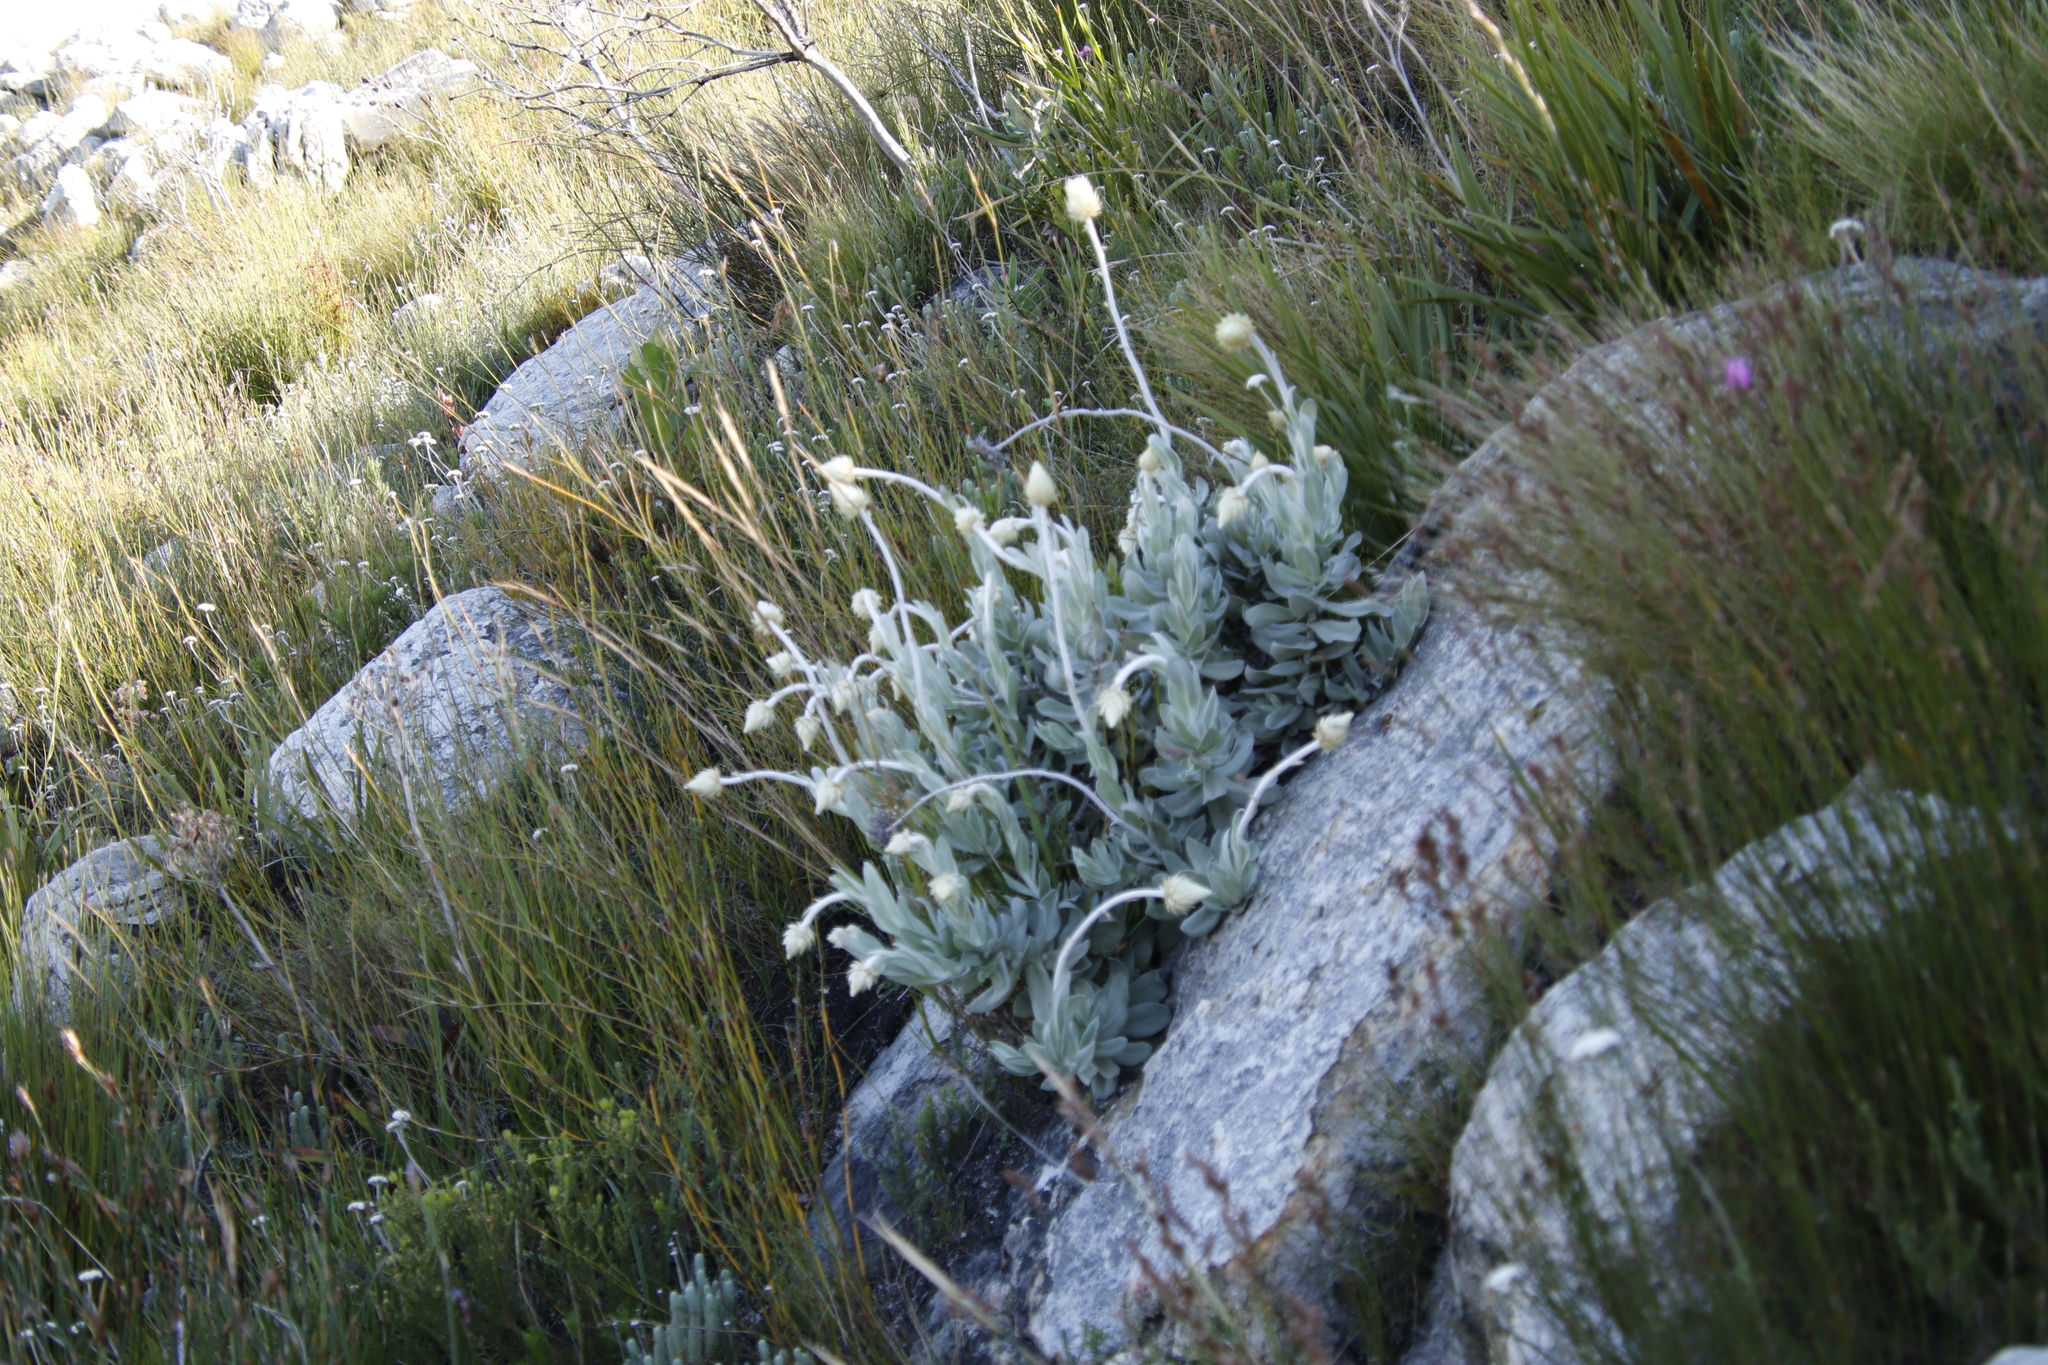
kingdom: Plantae
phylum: Tracheophyta
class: Magnoliopsida
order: Asterales
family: Asteraceae
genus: Syncarpha
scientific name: Syncarpha speciosissima
